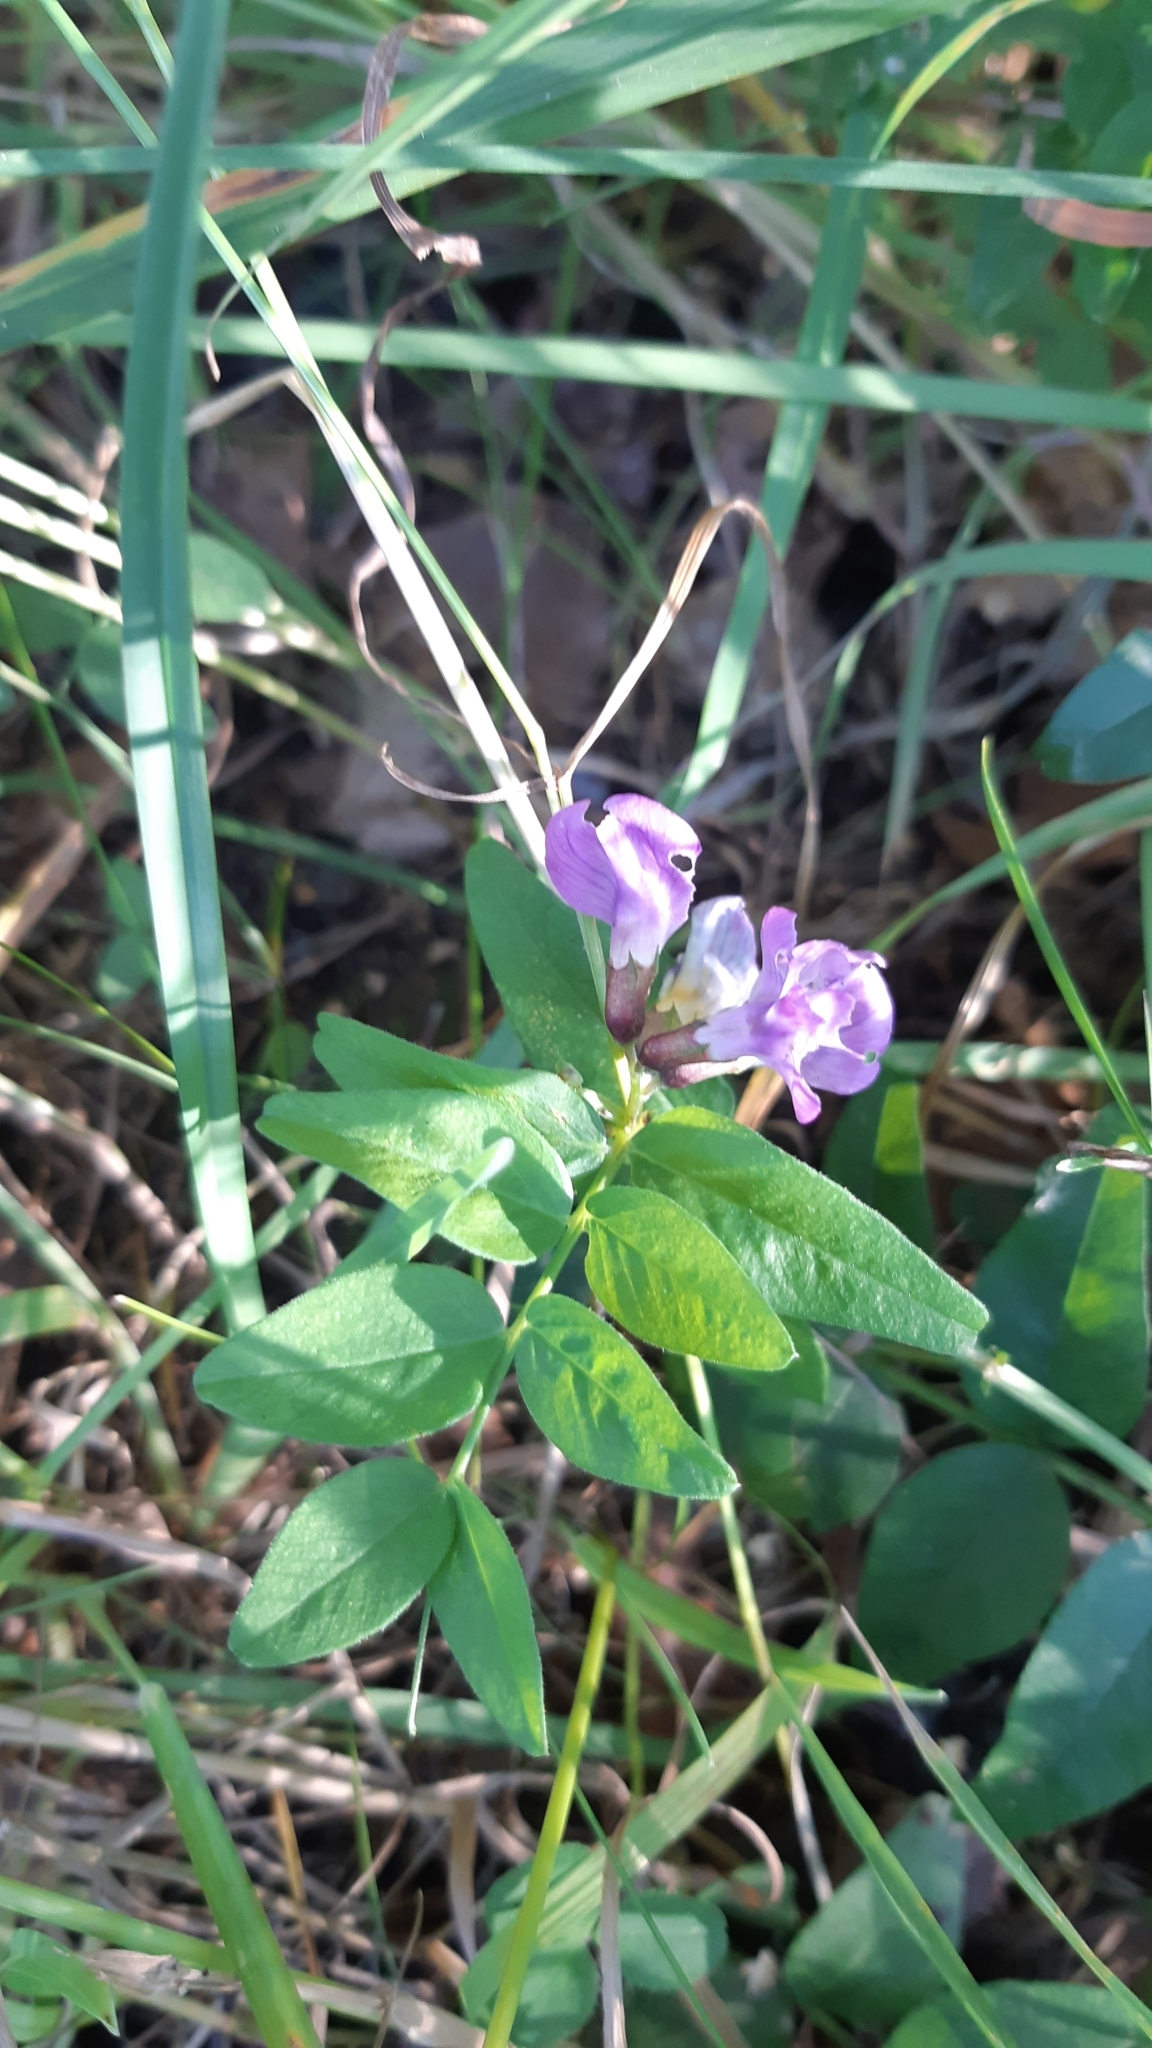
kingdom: Plantae
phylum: Tracheophyta
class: Magnoliopsida
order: Fabales
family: Fabaceae
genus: Vicia
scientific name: Vicia sepium
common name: Bush vetch
